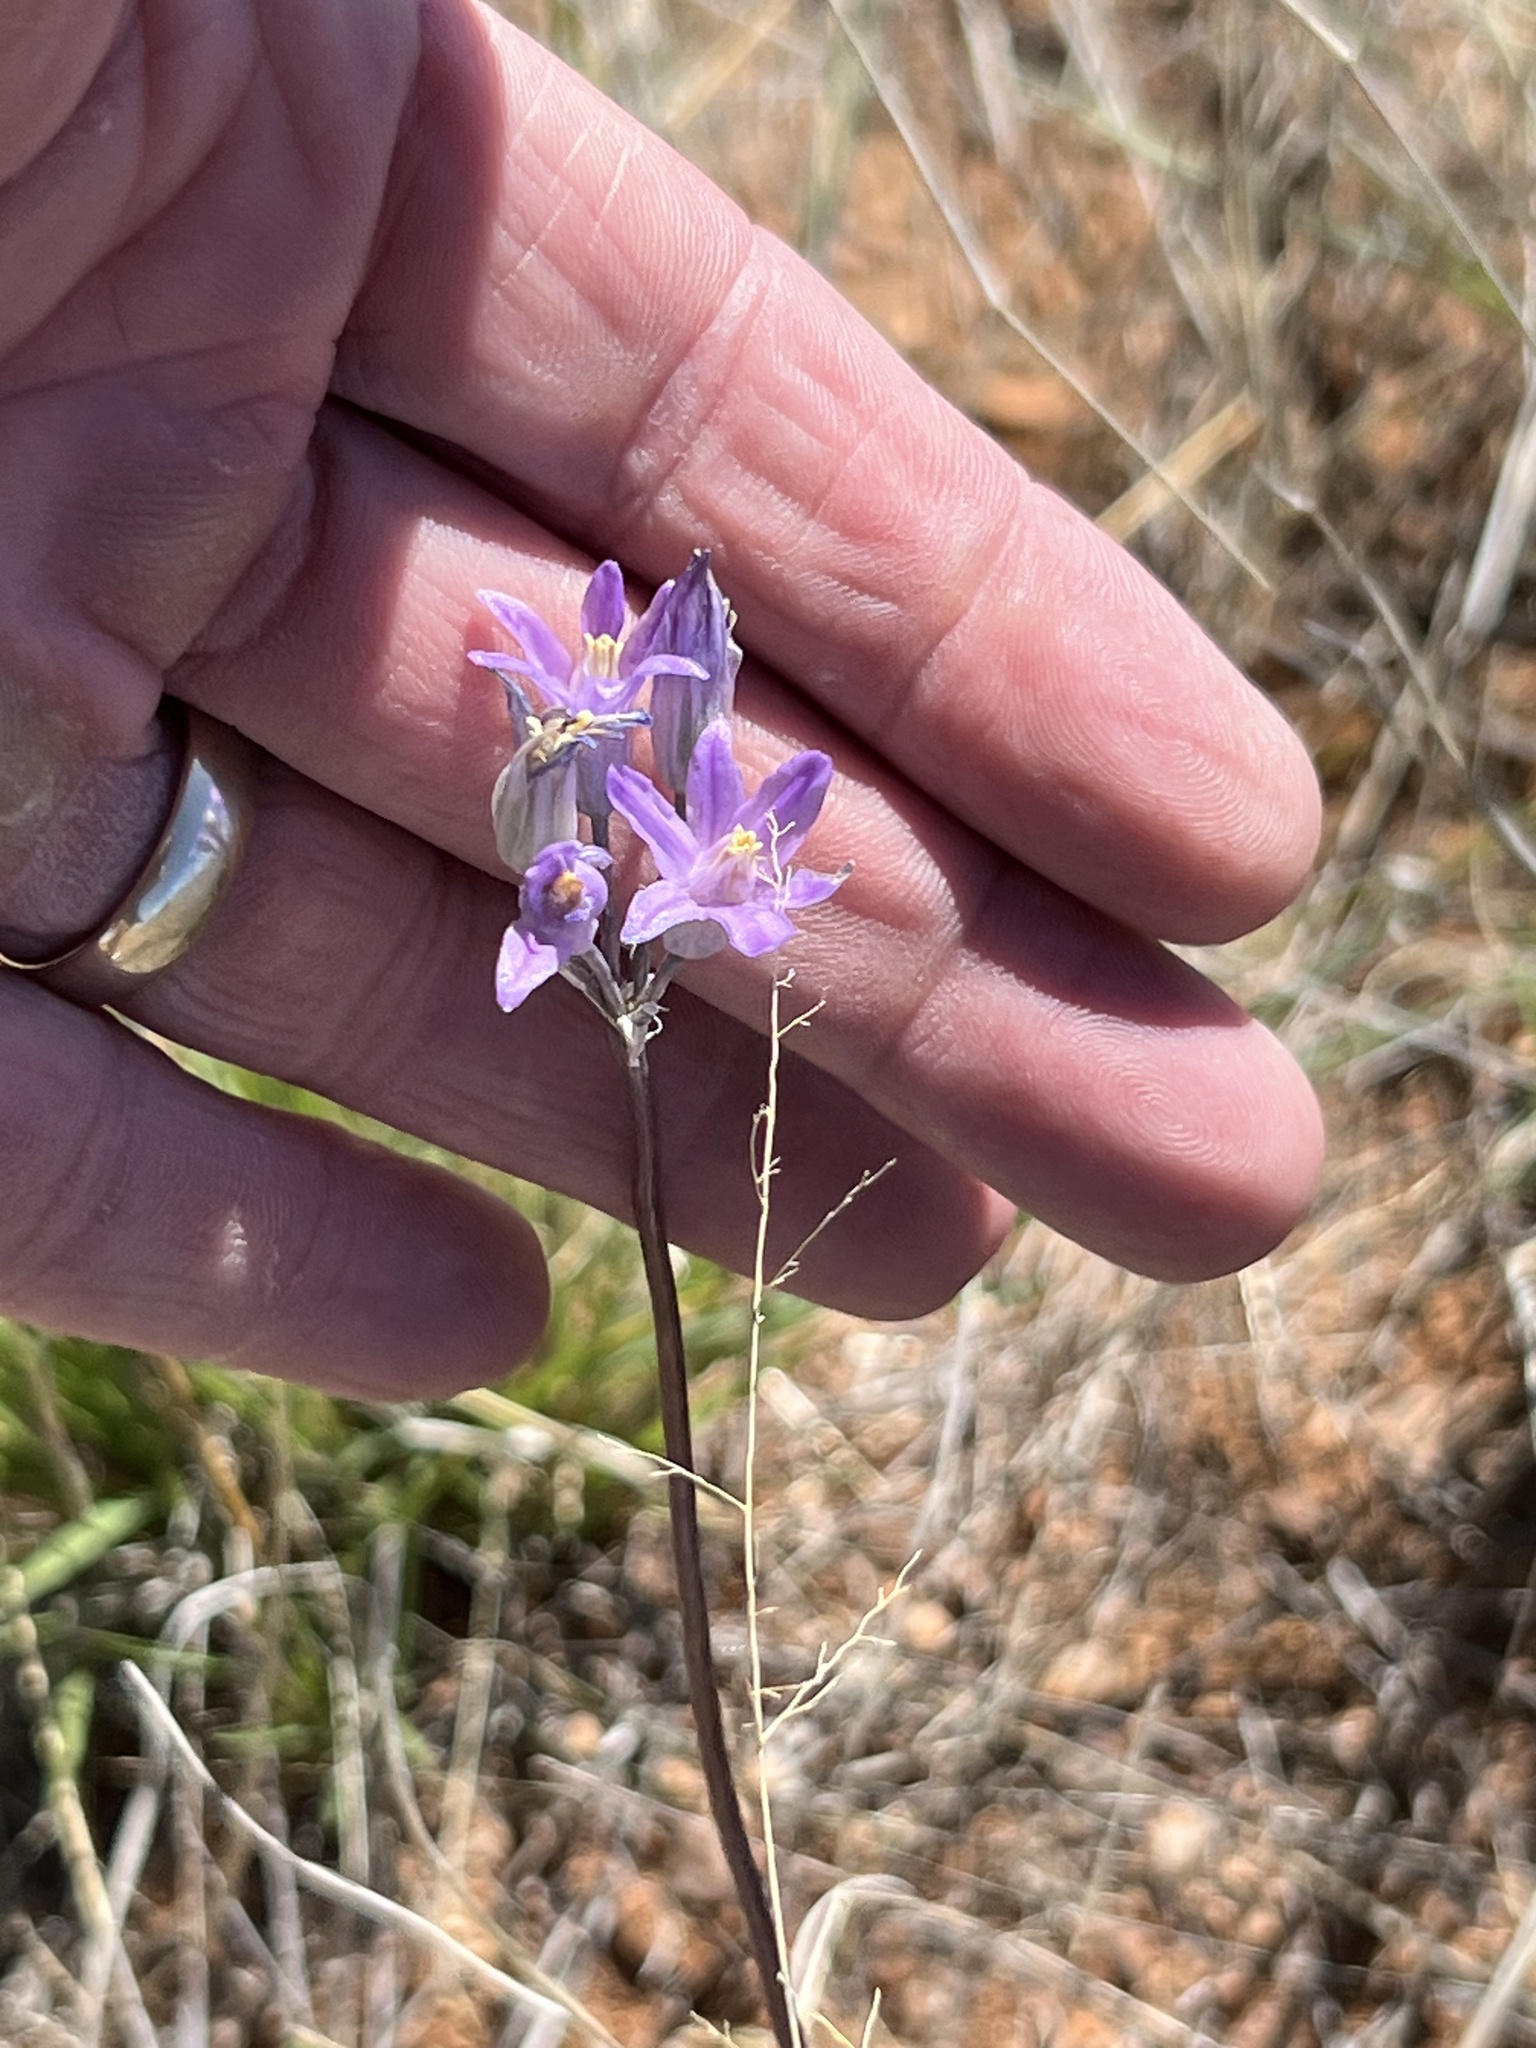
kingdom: Plantae
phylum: Tracheophyta
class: Liliopsida
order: Asparagales
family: Asparagaceae
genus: Dipterostemon
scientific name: Dipterostemon capitatus
